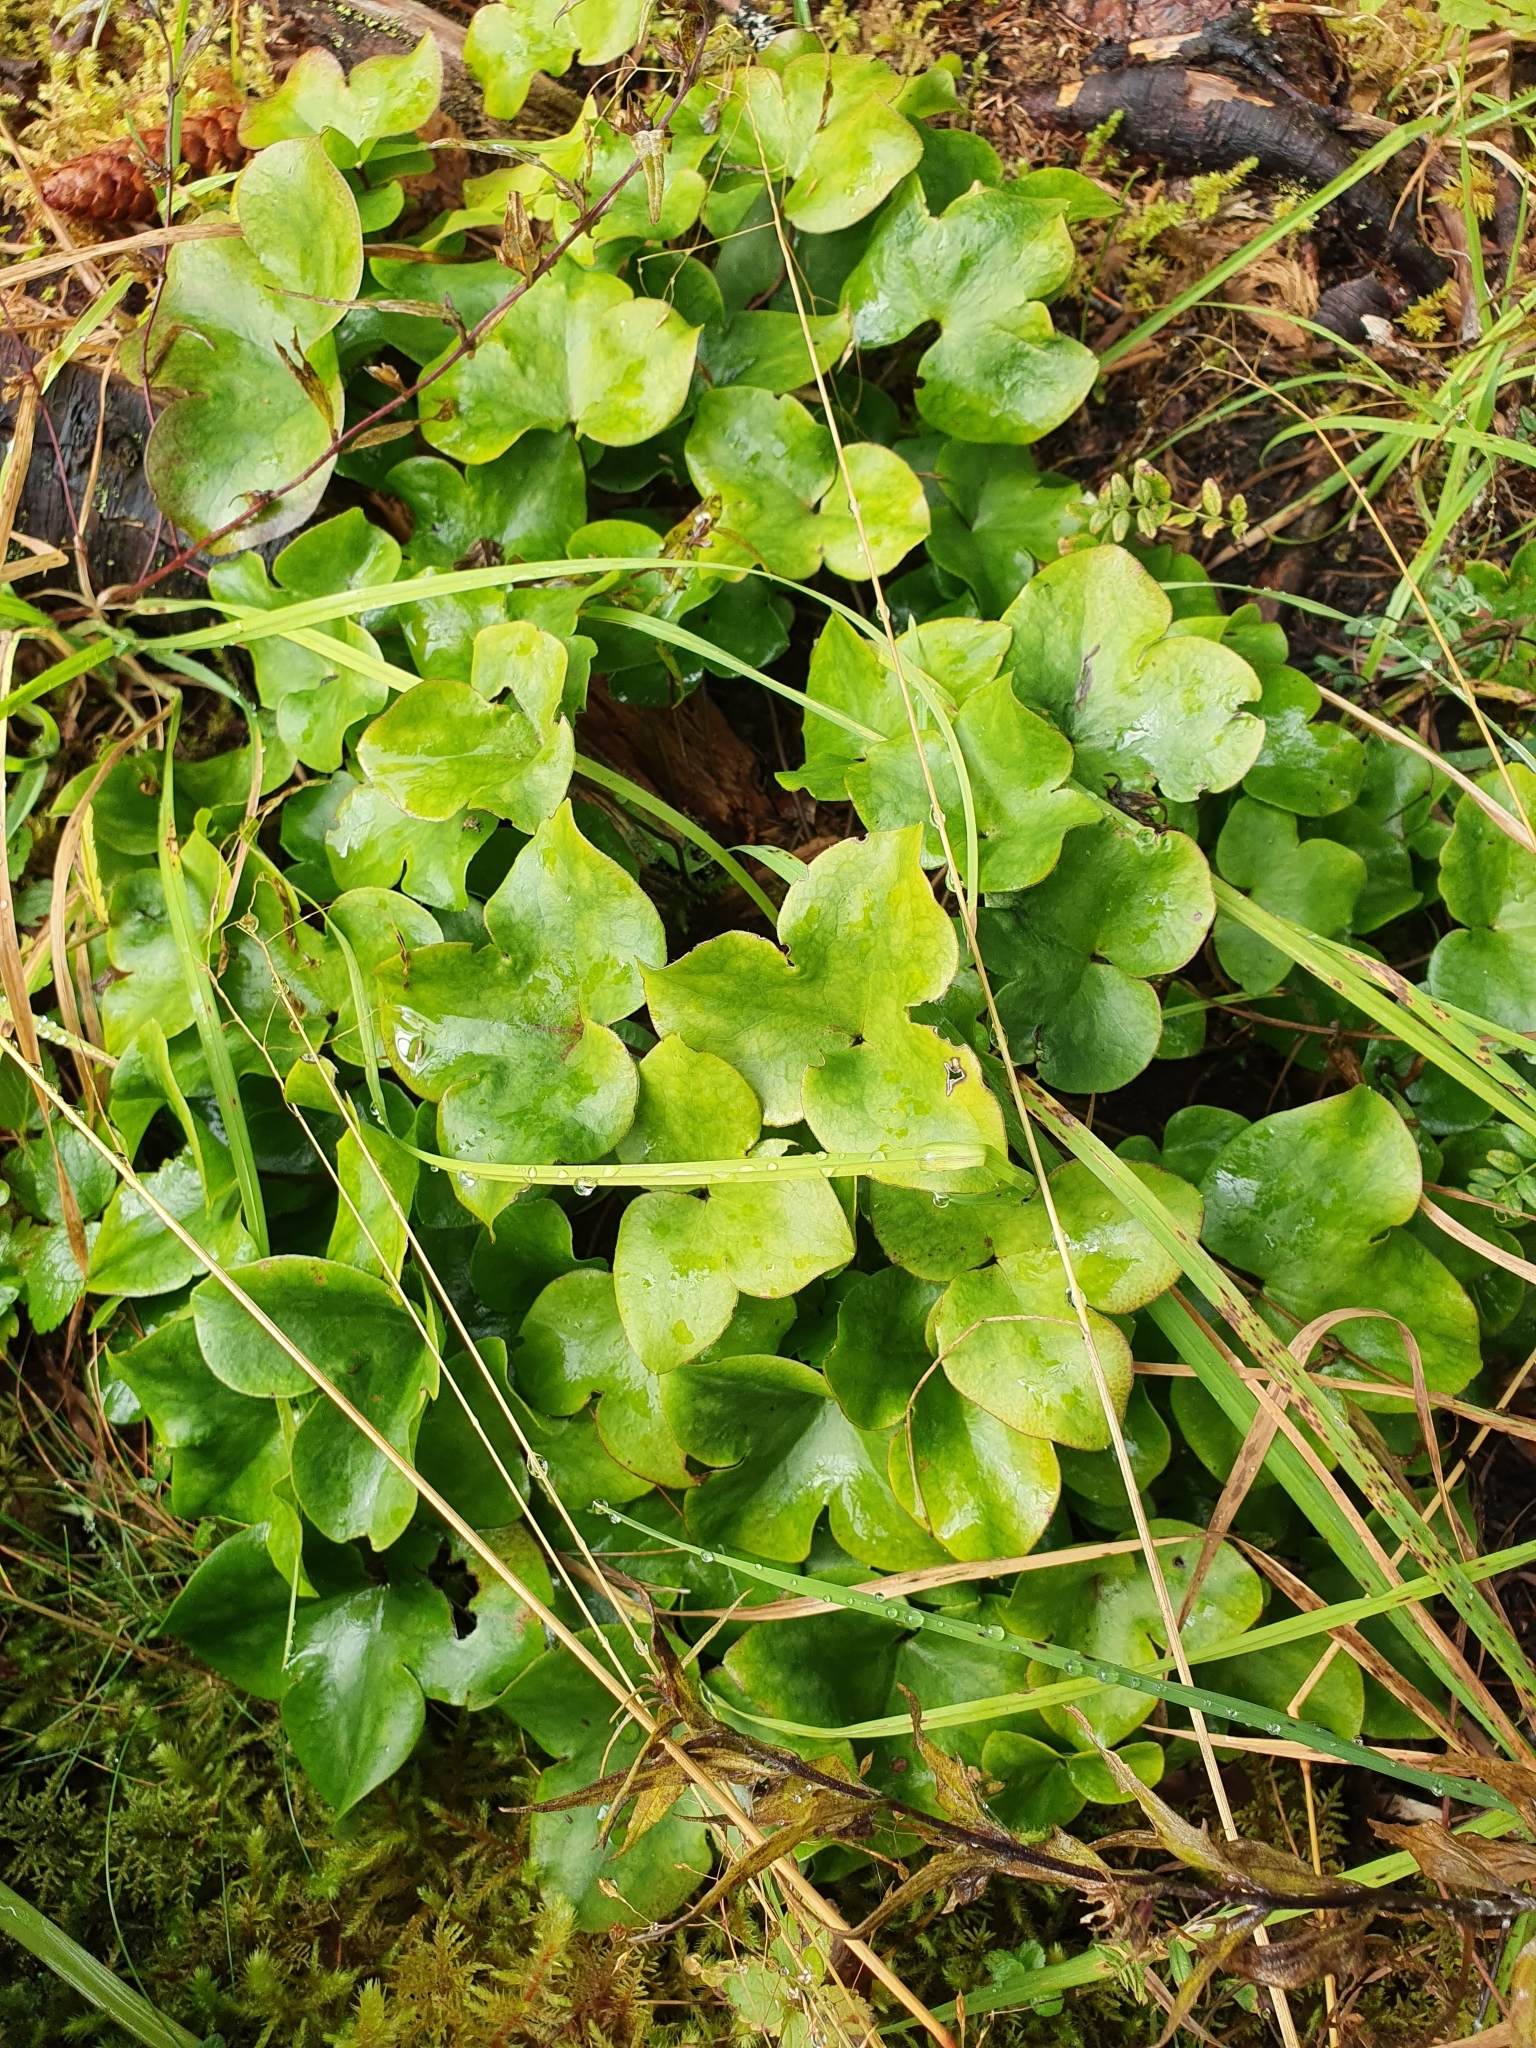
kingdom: Plantae
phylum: Tracheophyta
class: Magnoliopsida
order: Ranunculales
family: Ranunculaceae
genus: Hepatica
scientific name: Hepatica nobilis
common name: Liverleaf
